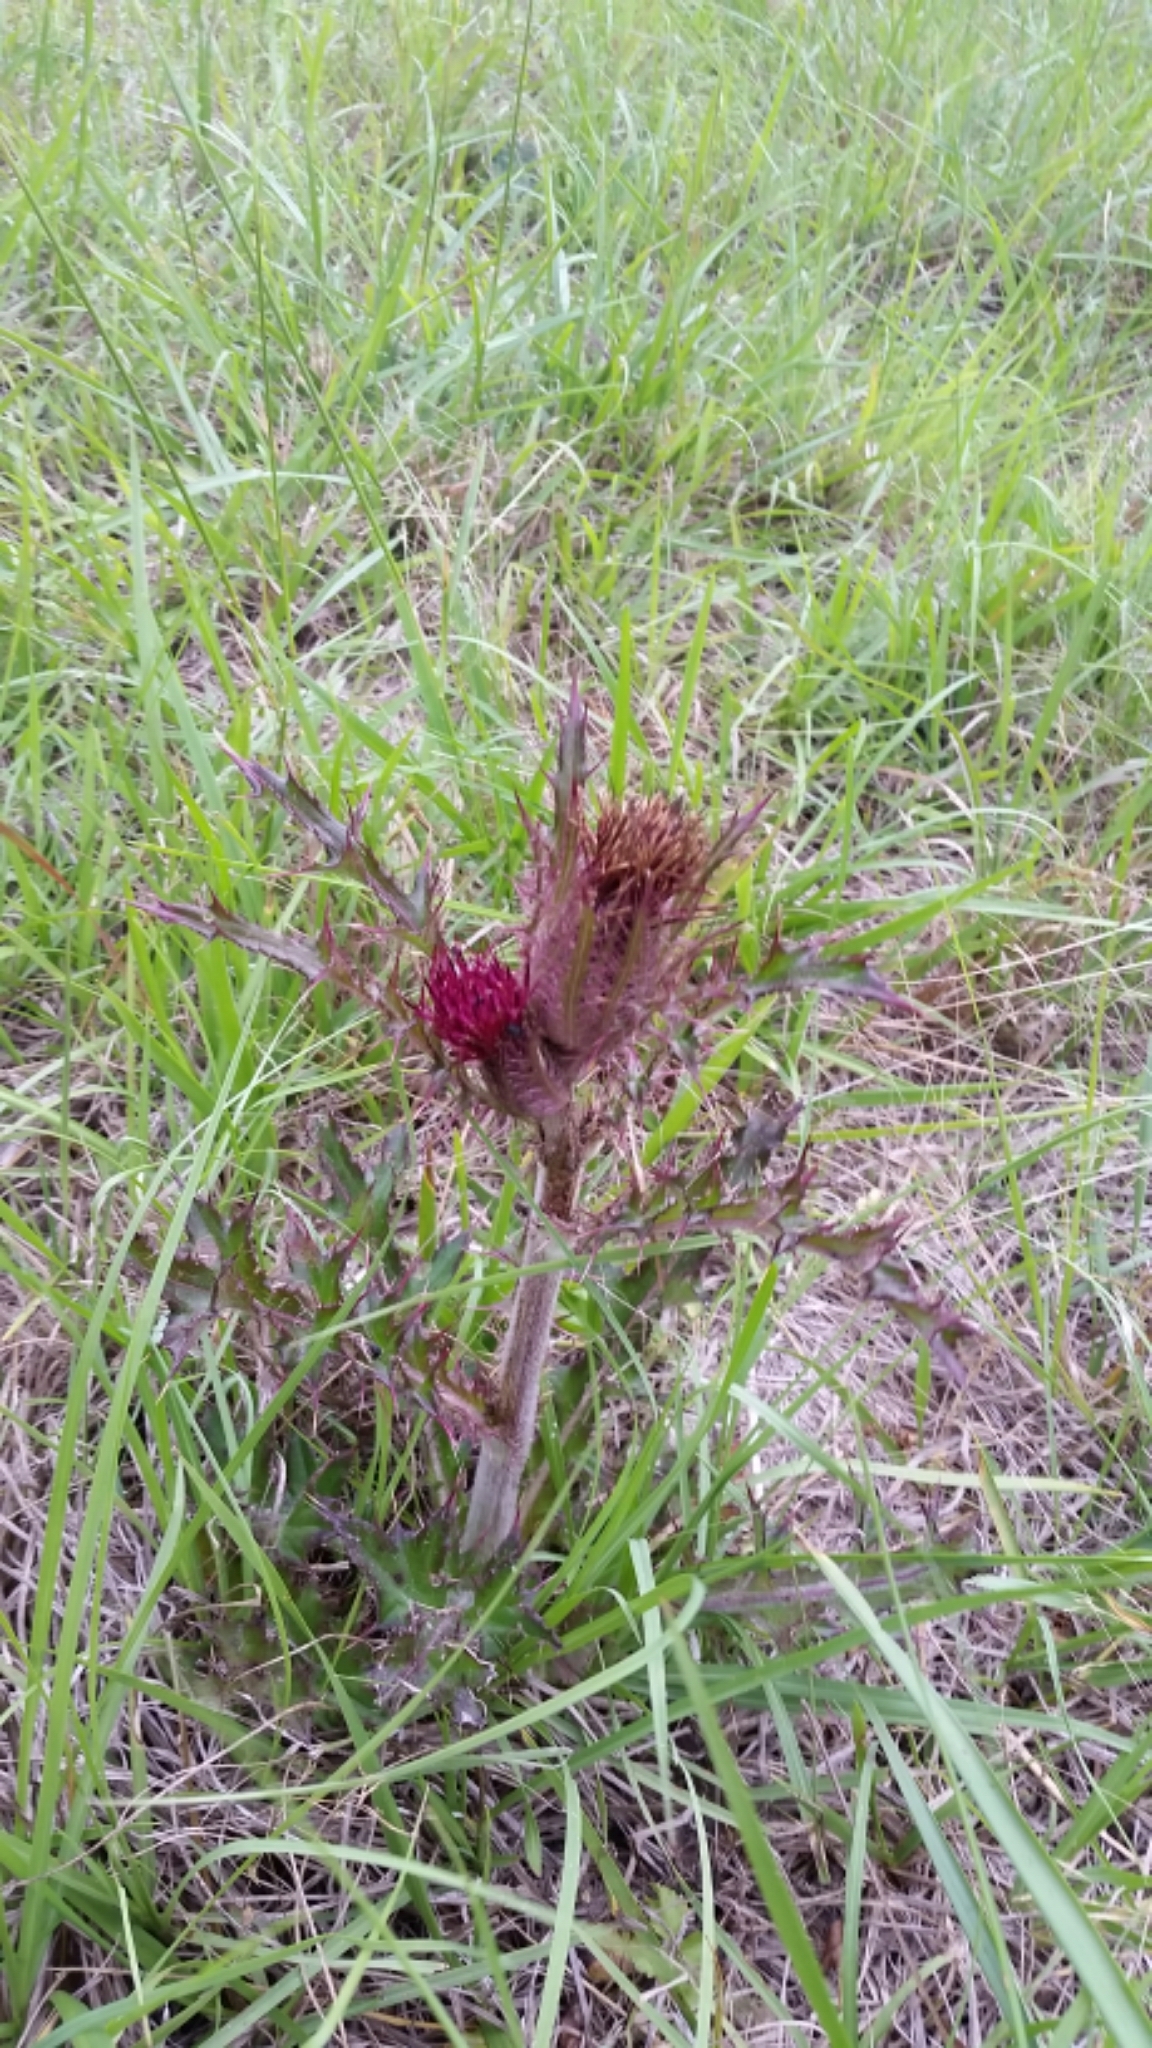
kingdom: Plantae
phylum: Tracheophyta
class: Magnoliopsida
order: Asterales
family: Asteraceae
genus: Cirsium
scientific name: Cirsium horridulum
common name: Bristly thistle
